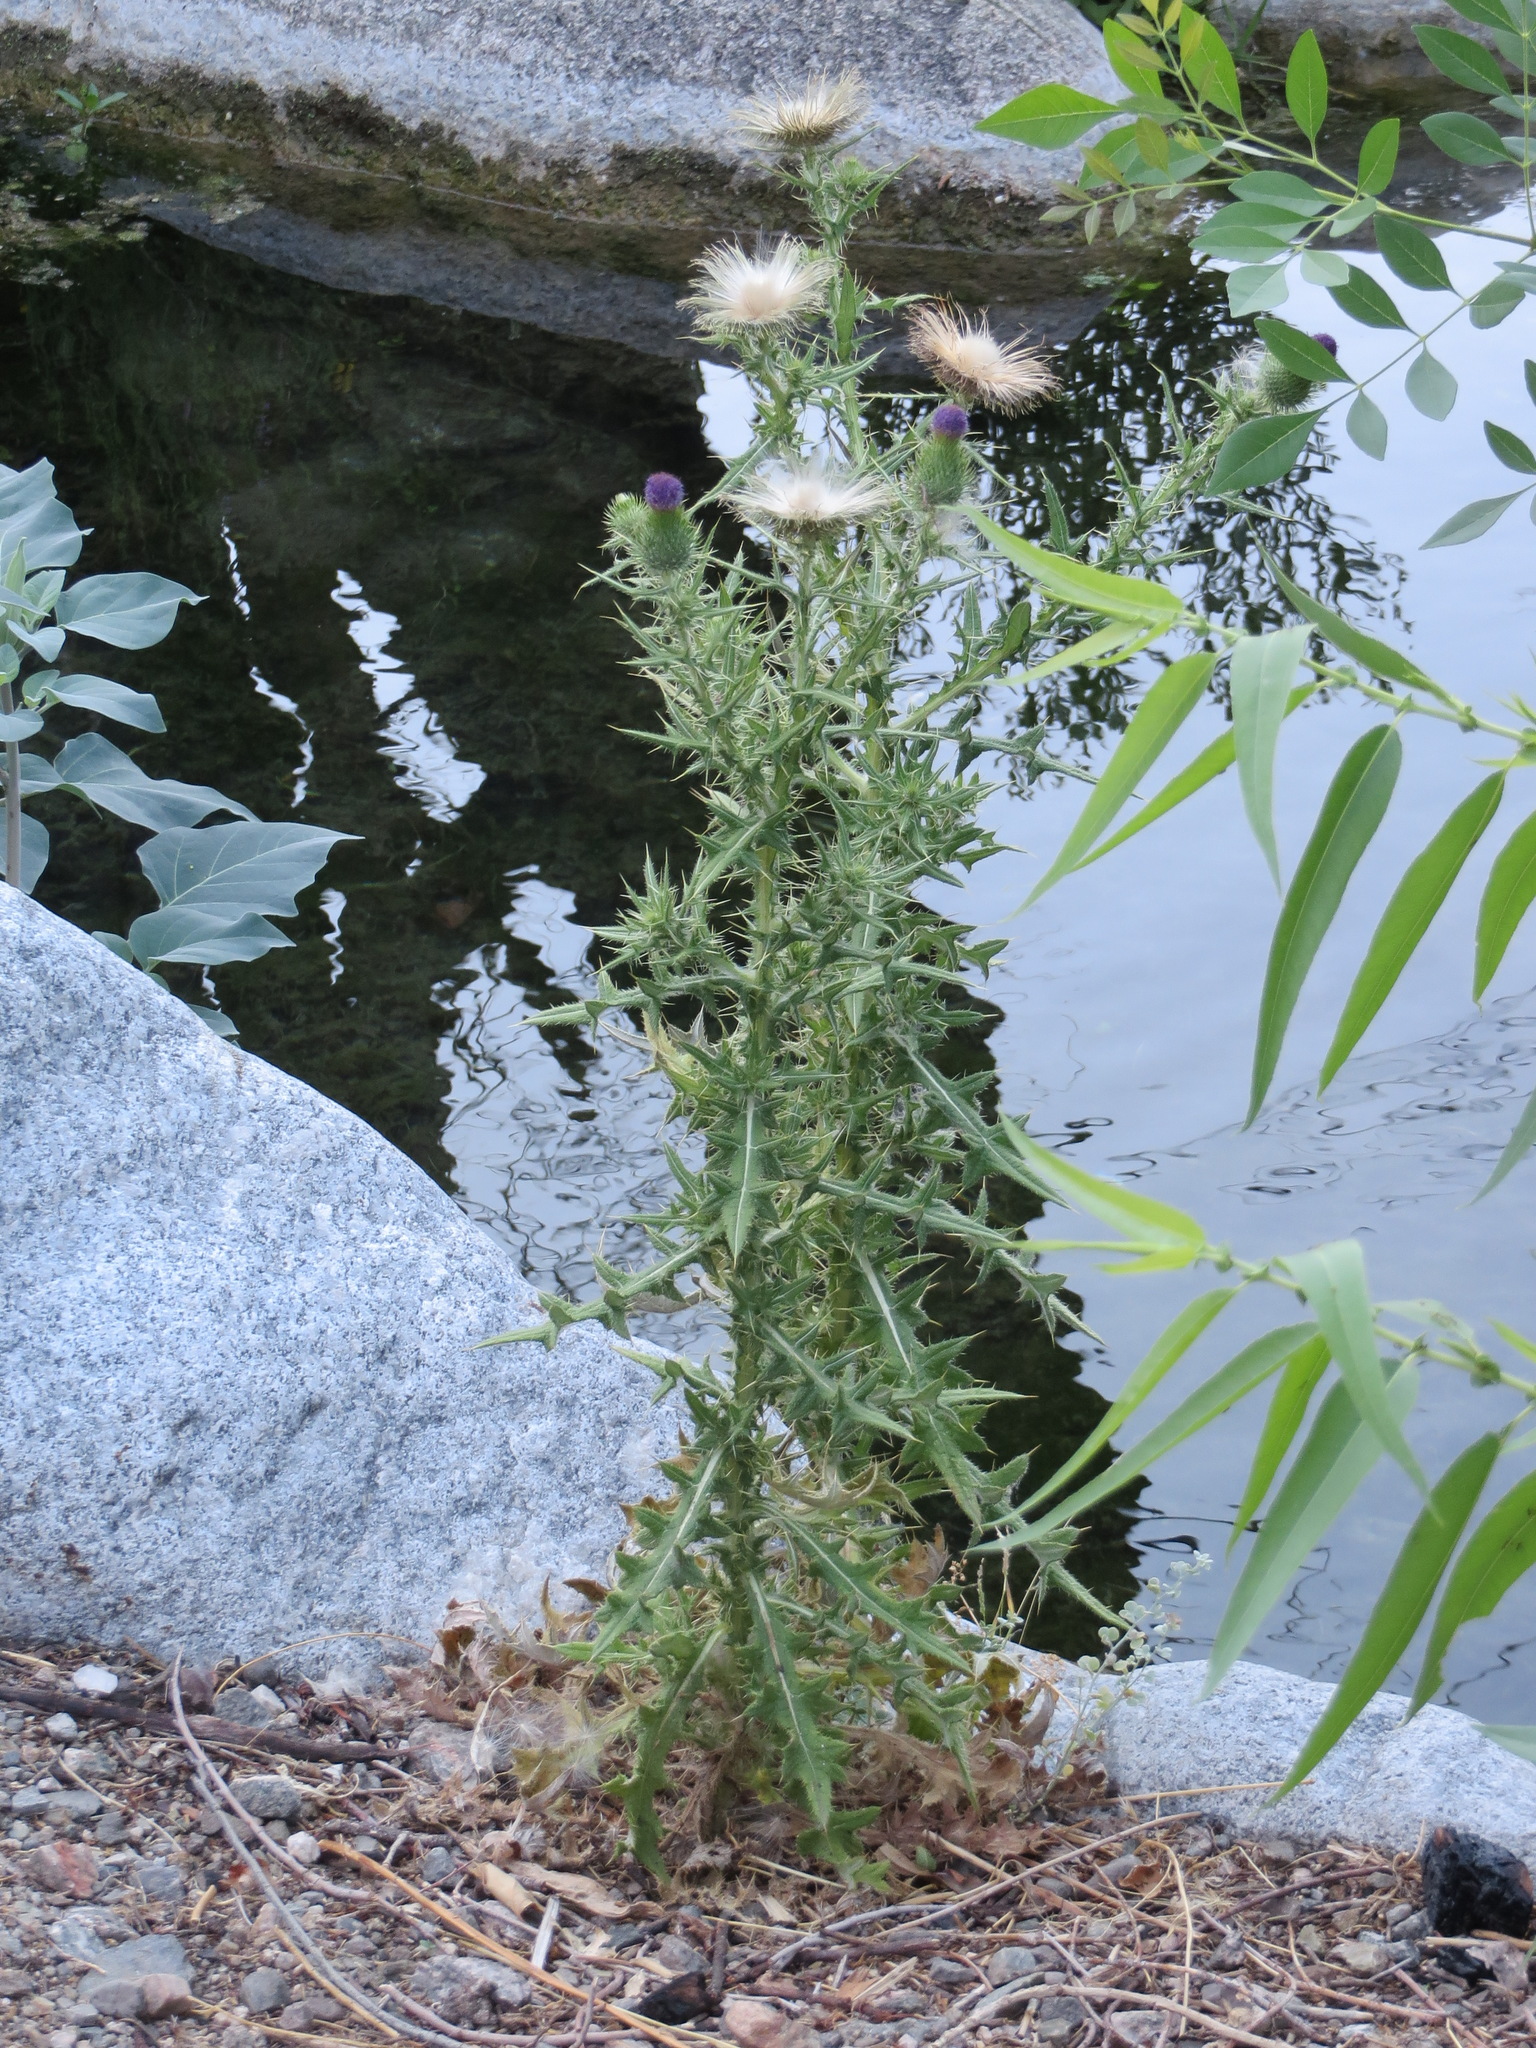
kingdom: Plantae
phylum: Tracheophyta
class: Magnoliopsida
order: Asterales
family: Asteraceae
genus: Cirsium
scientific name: Cirsium vulgare
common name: Bull thistle
